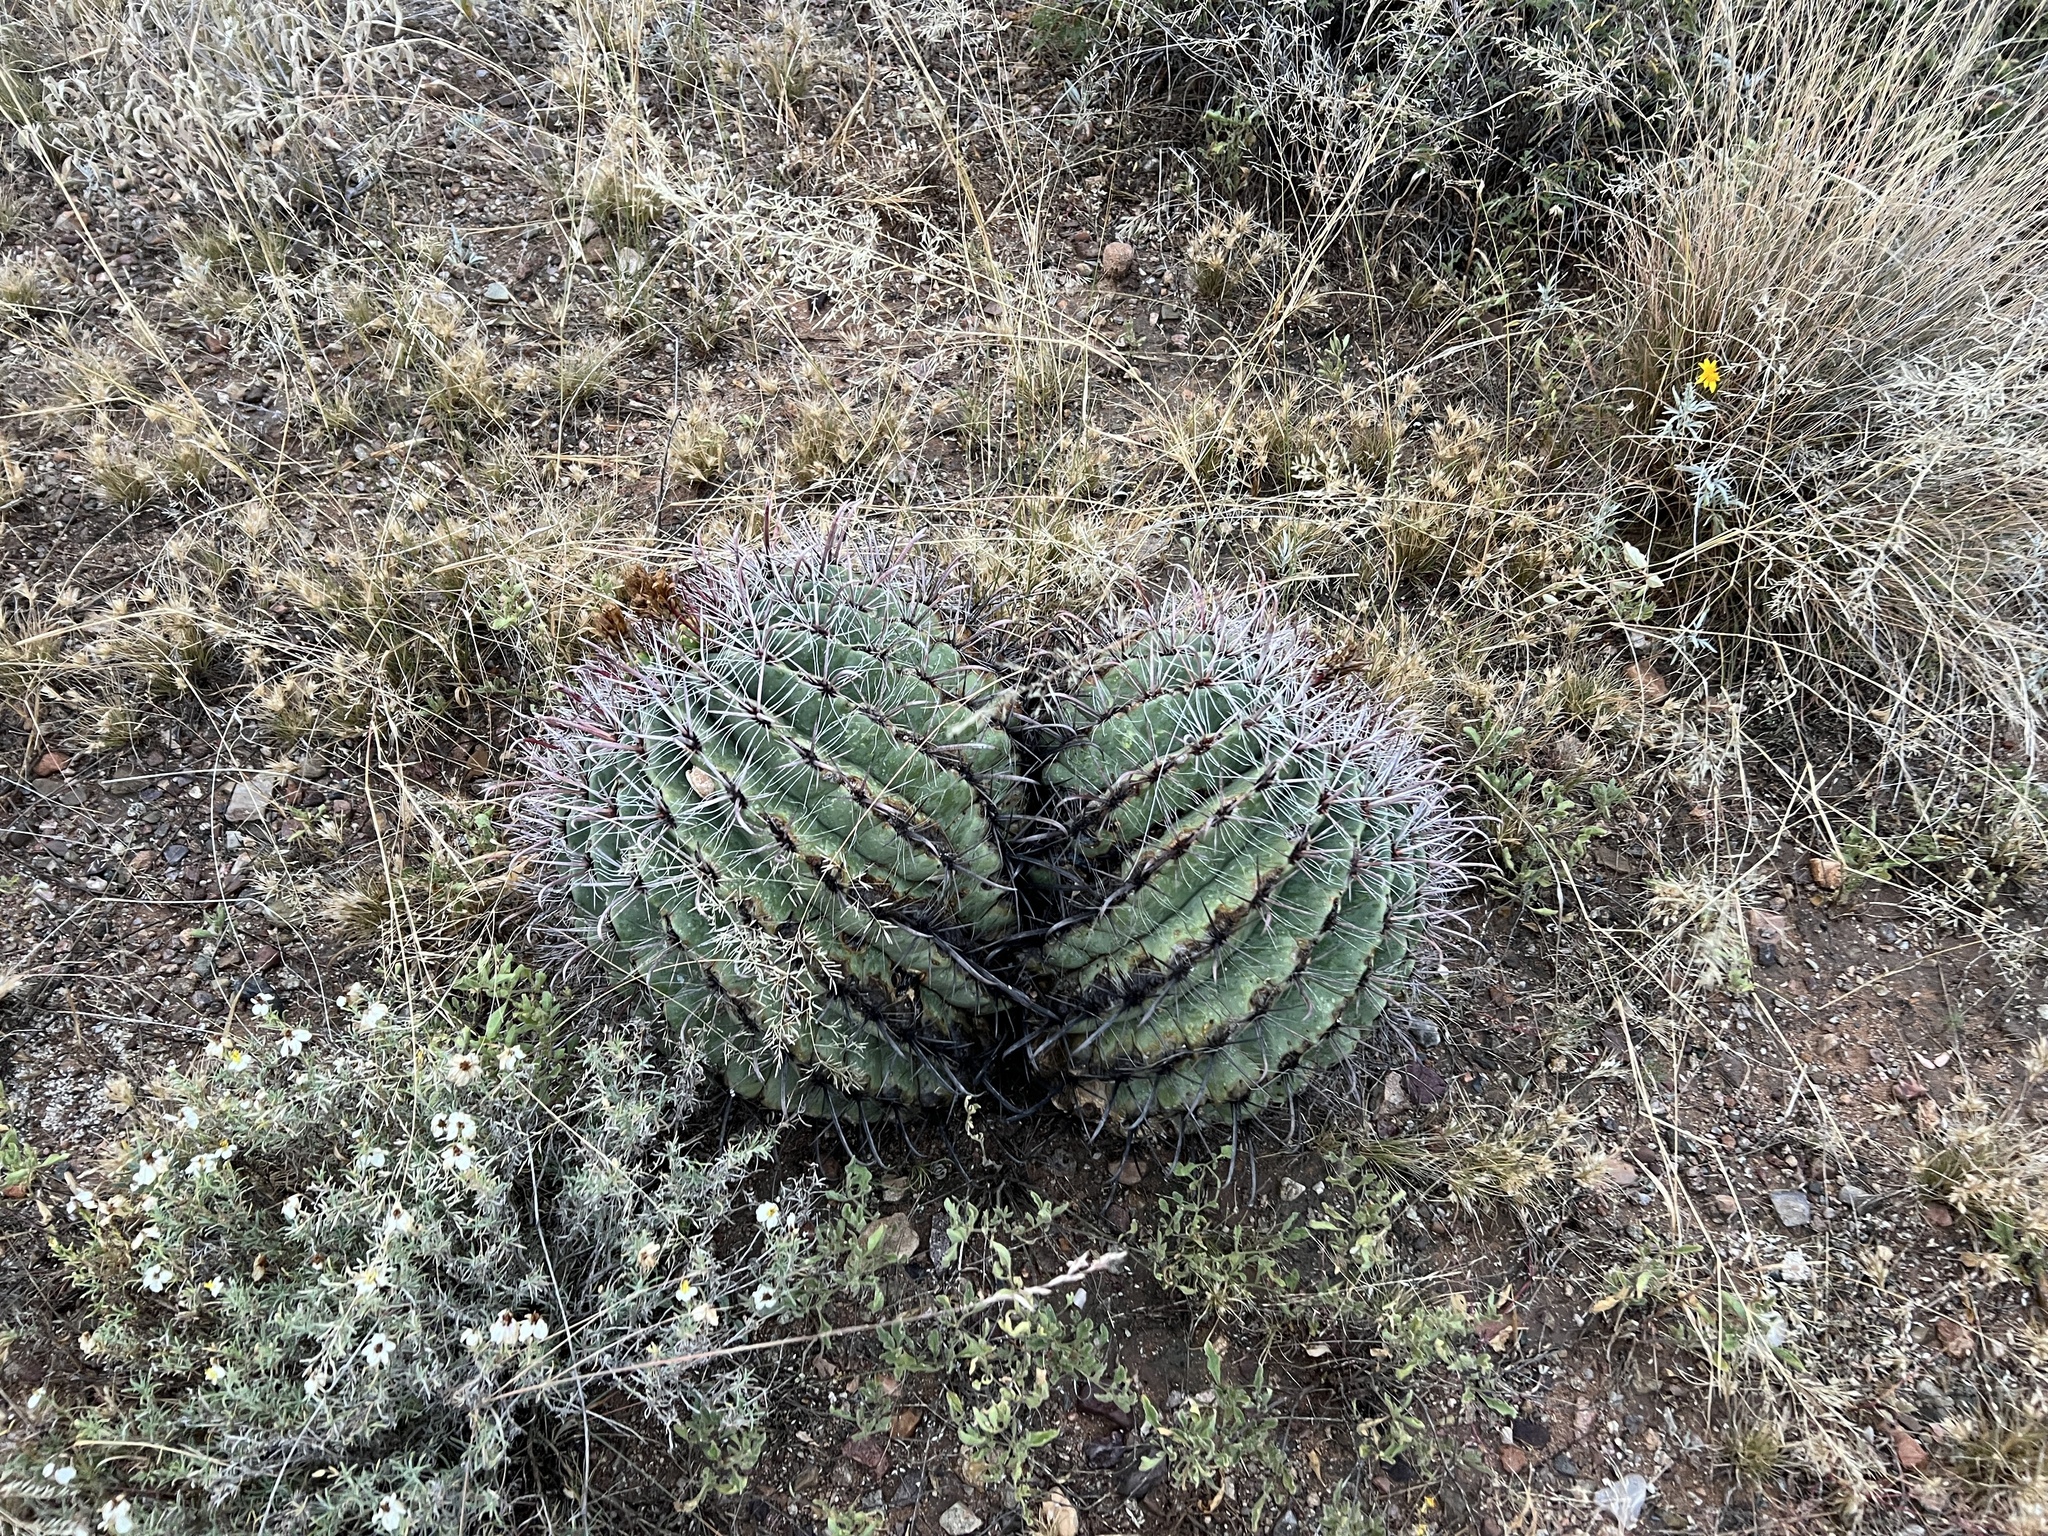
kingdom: Plantae
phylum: Tracheophyta
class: Magnoliopsida
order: Caryophyllales
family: Cactaceae
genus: Ferocactus
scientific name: Ferocactus wislizeni
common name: Candy barrel cactus
